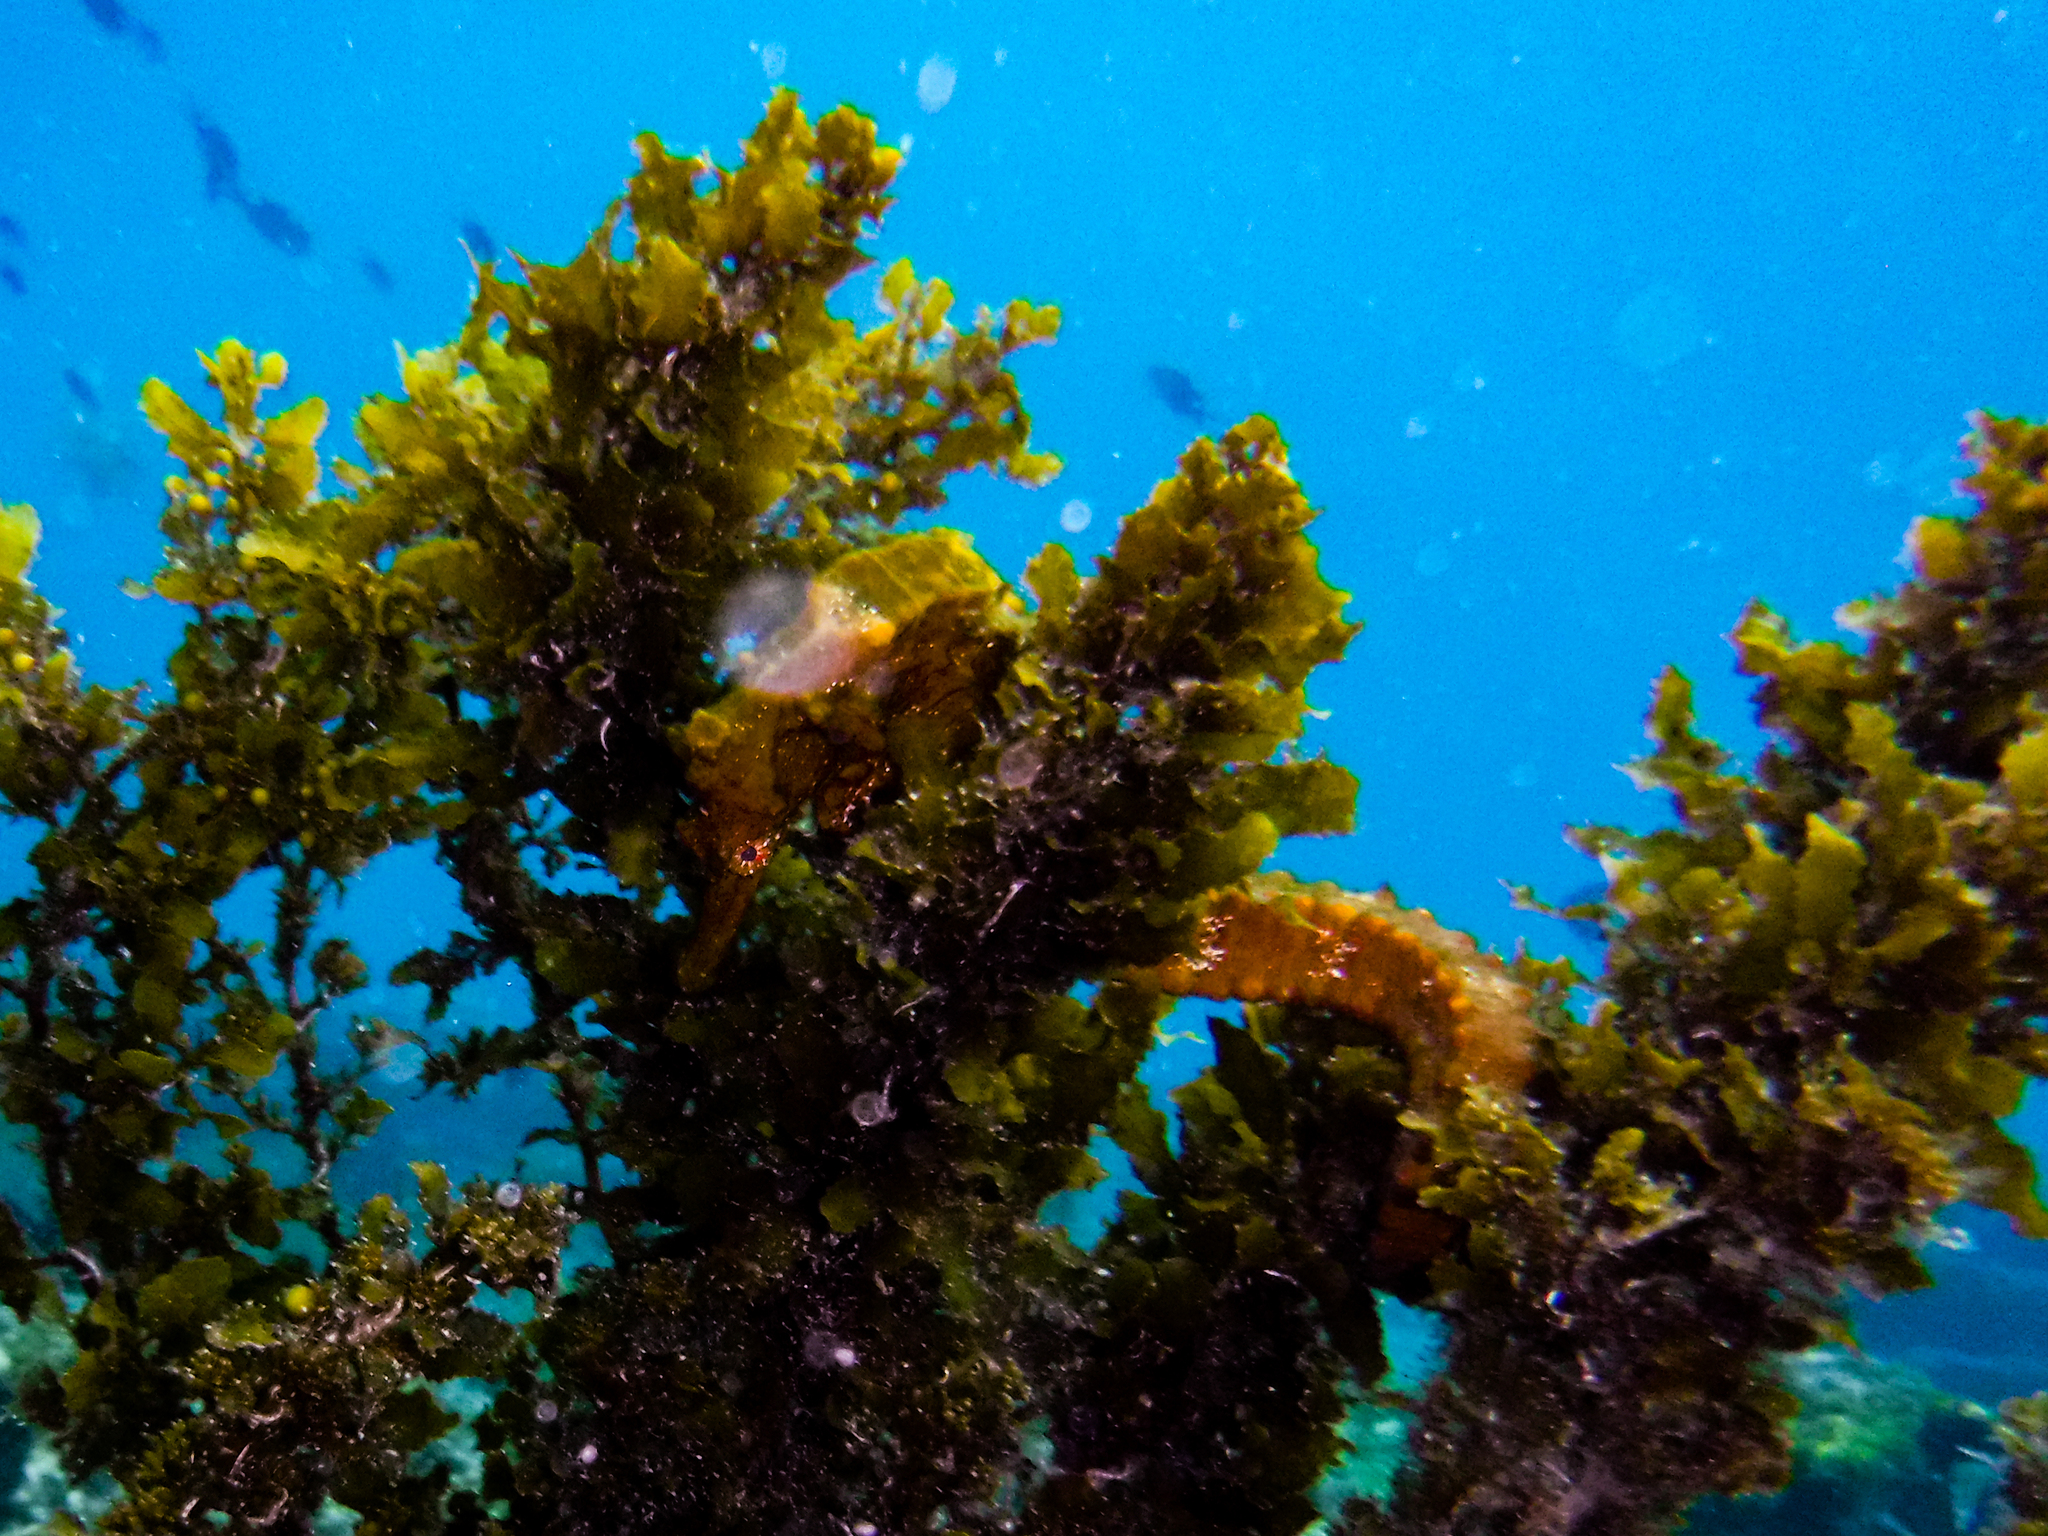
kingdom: Animalia
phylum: Chordata
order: Syngnathiformes
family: Syngnathidae
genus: Hippocampus
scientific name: Hippocampus ingens
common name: Giant seahorse
